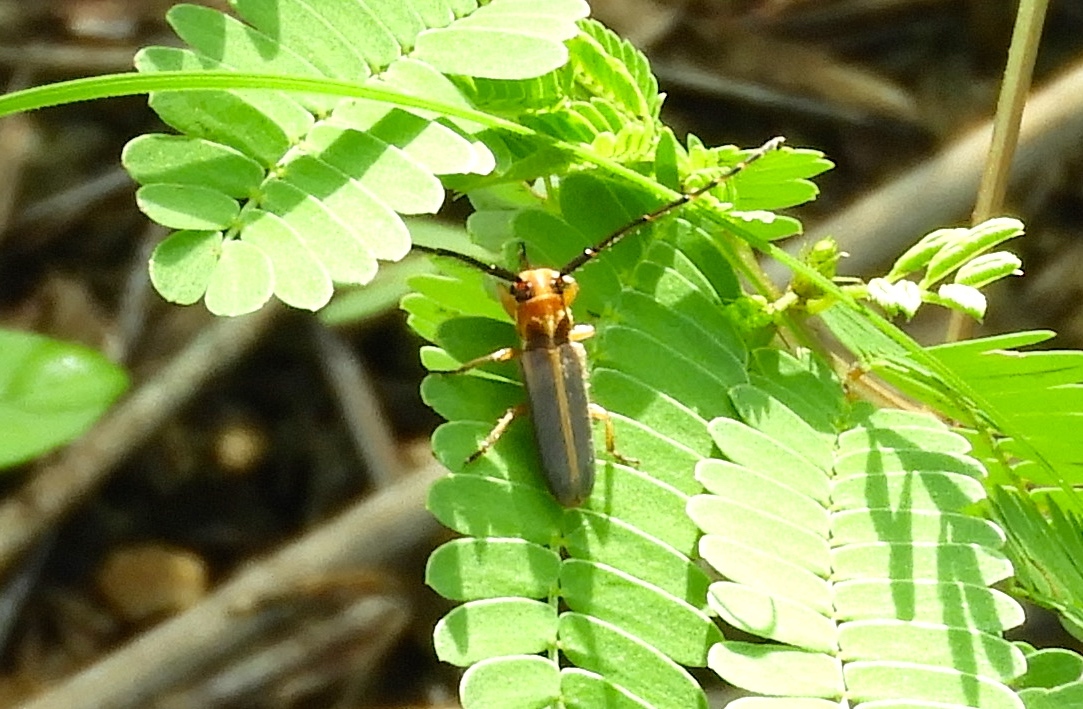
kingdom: Animalia
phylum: Arthropoda
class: Insecta
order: Coleoptera
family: Cerambycidae
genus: Essostrutha
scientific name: Essostrutha binotata
